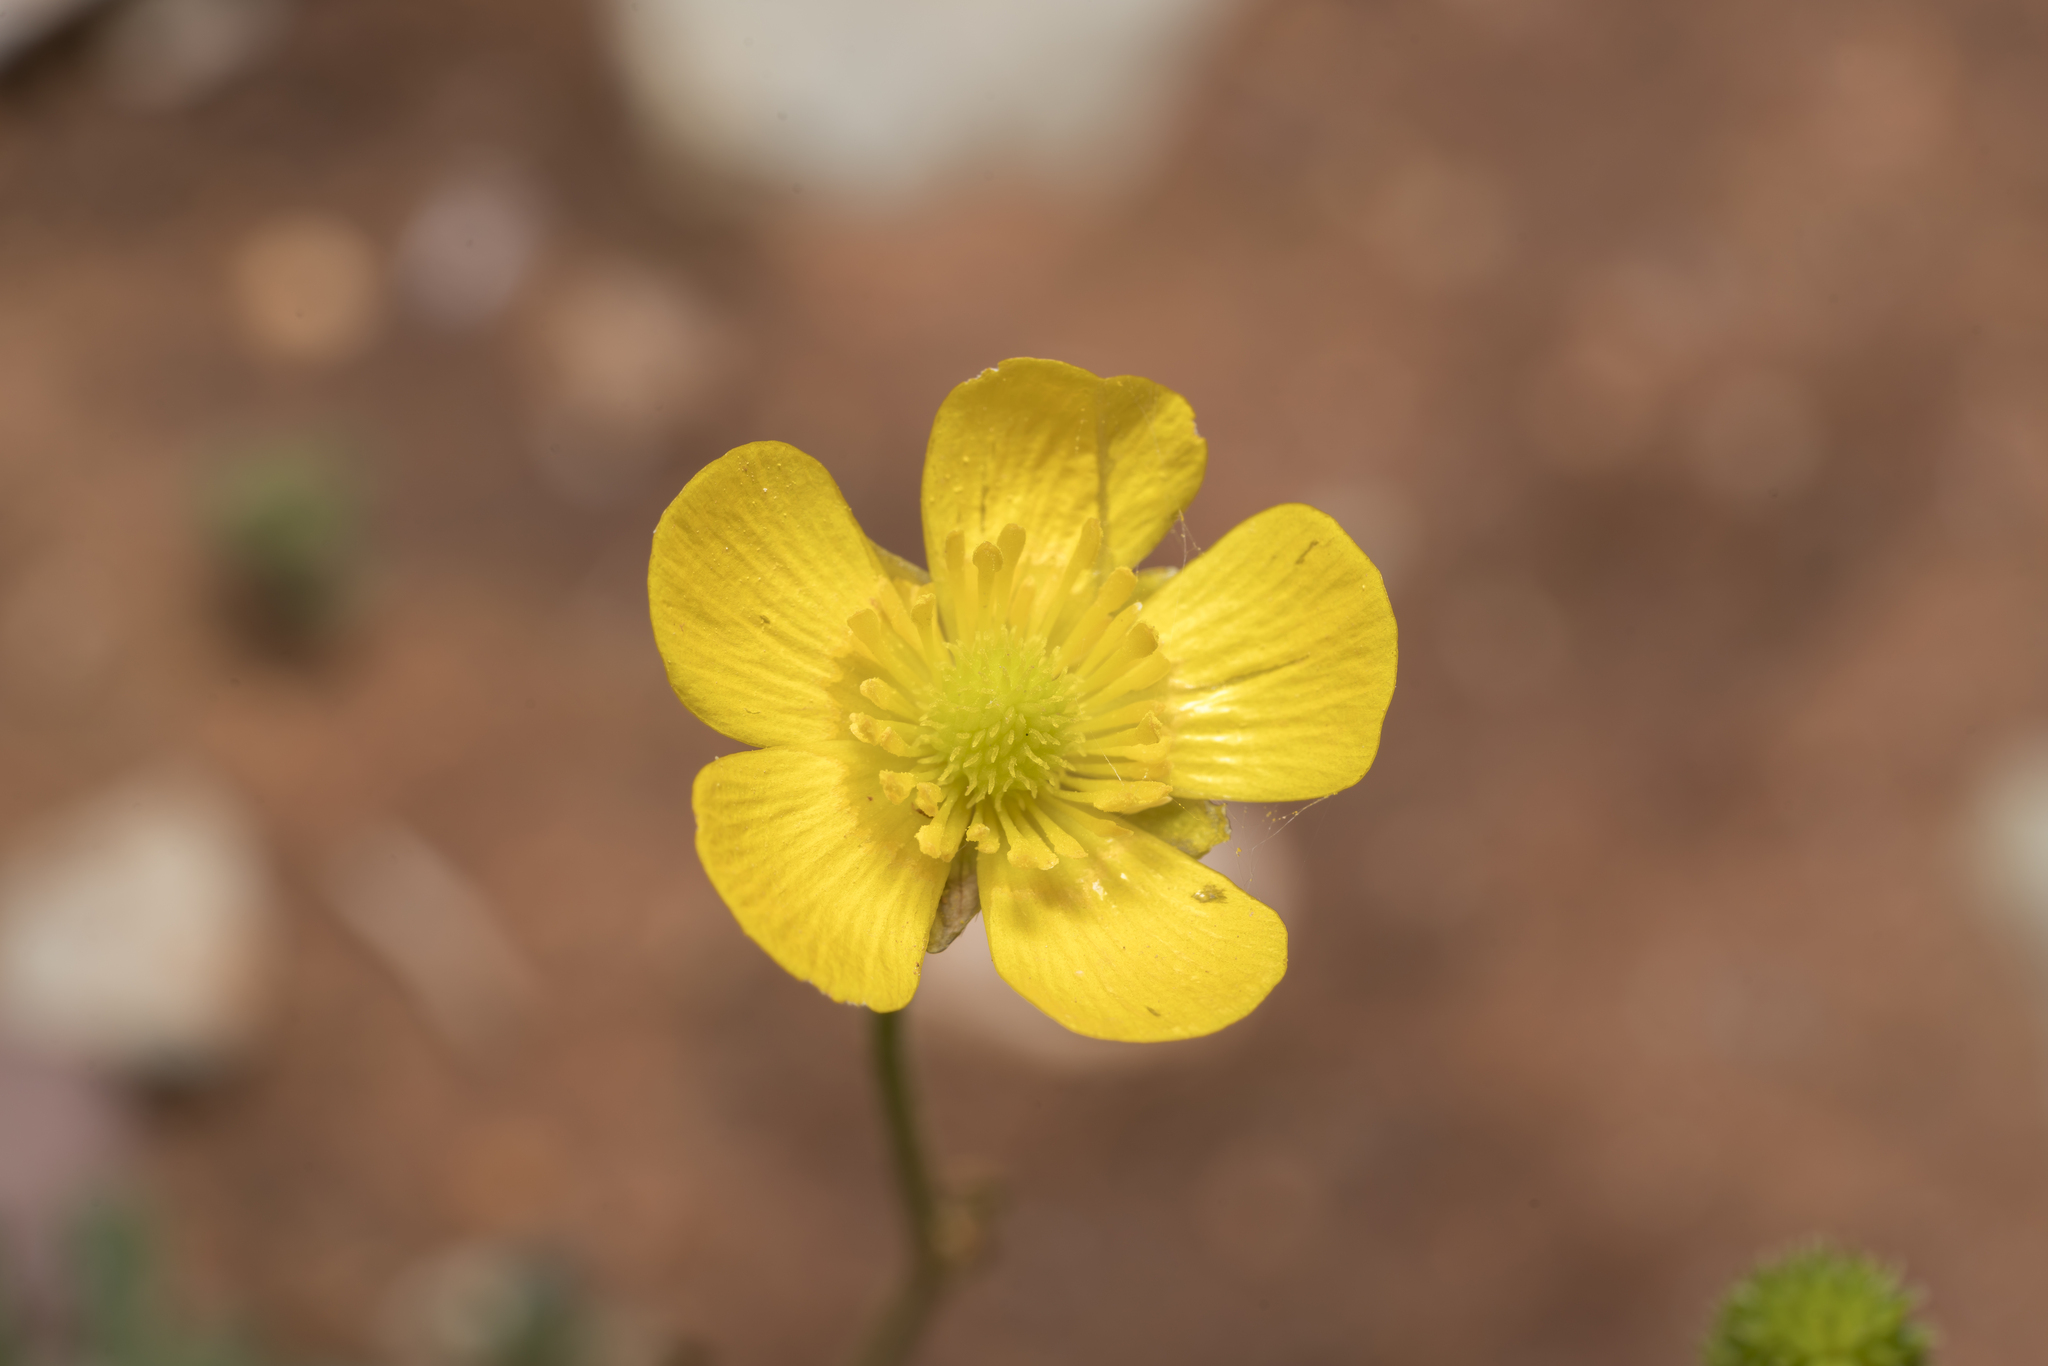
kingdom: Plantae
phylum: Tracheophyta
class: Magnoliopsida
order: Ranunculales
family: Ranunculaceae
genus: Ranunculus
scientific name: Ranunculus paludosus
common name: Jersey buttercup
